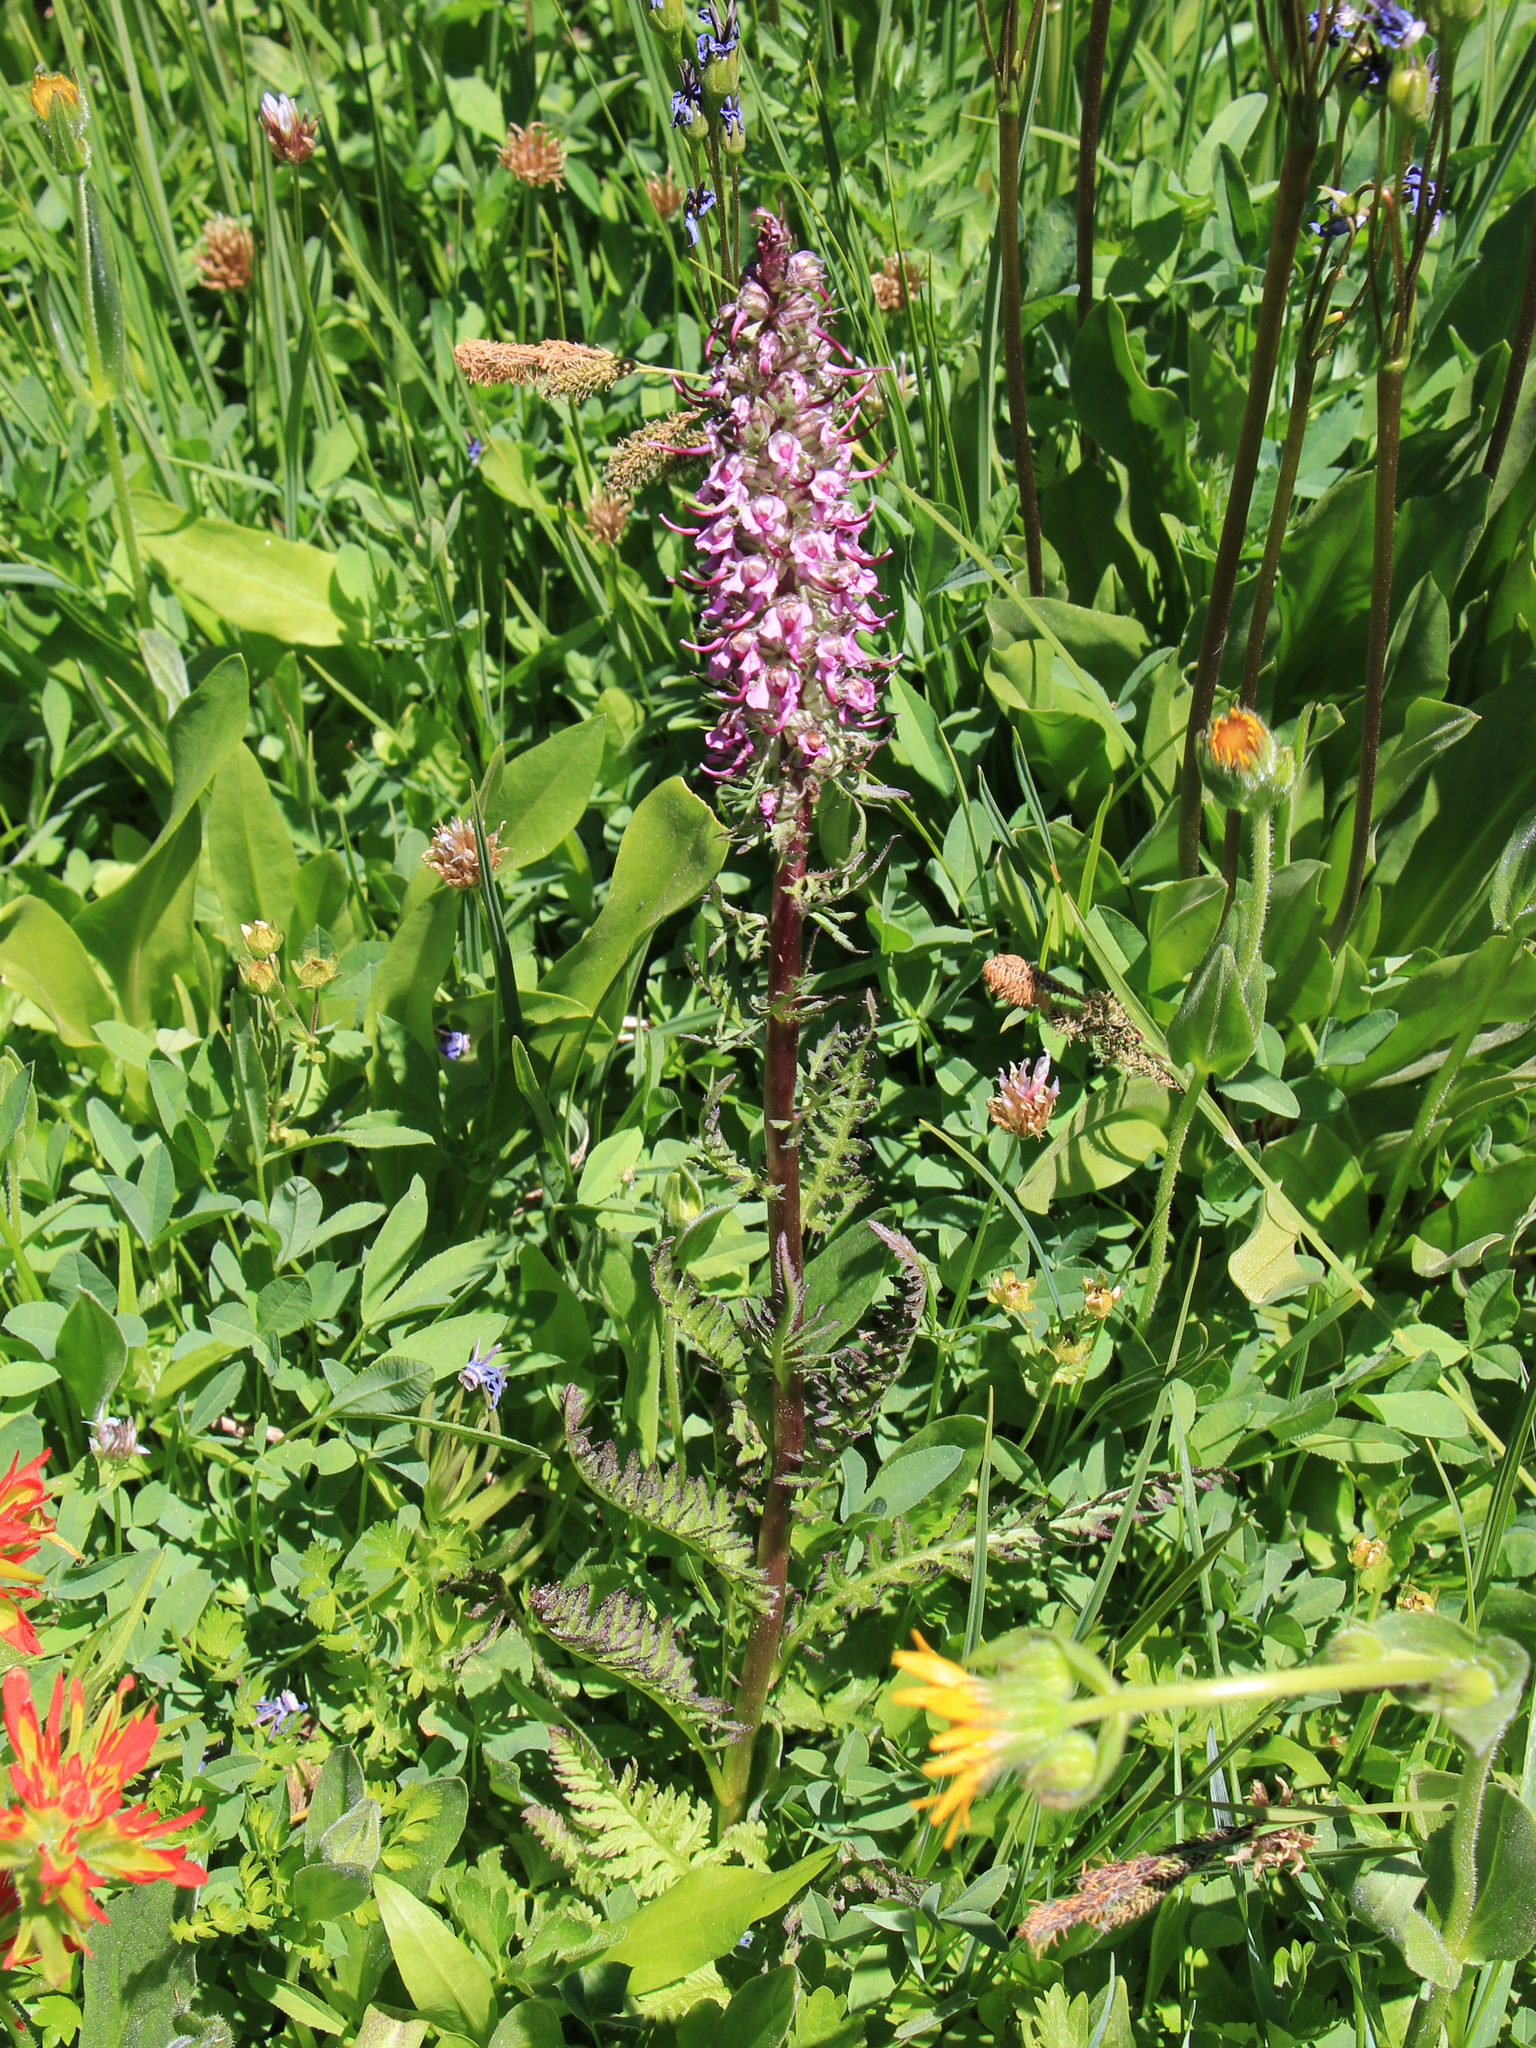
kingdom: Plantae
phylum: Tracheophyta
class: Magnoliopsida
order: Lamiales
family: Orobanchaceae
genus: Pedicularis
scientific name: Pedicularis groenlandica
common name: Elephant's-head
